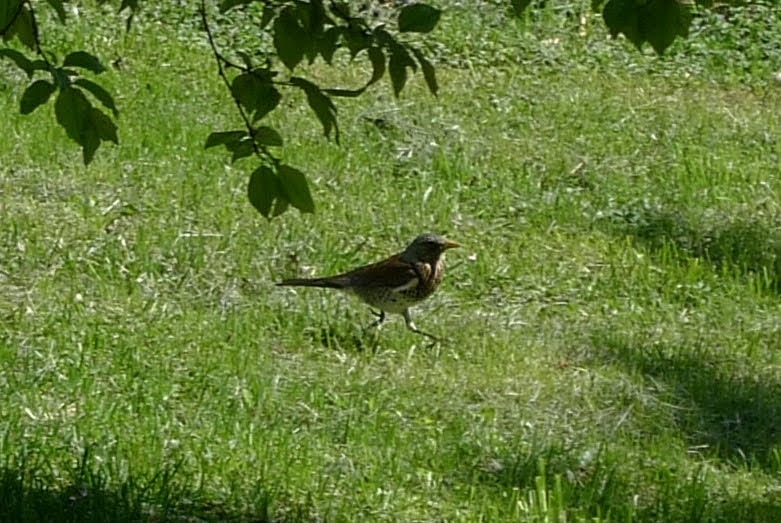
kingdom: Animalia
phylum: Chordata
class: Aves
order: Passeriformes
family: Turdidae
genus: Turdus
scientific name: Turdus pilaris
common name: Fieldfare
